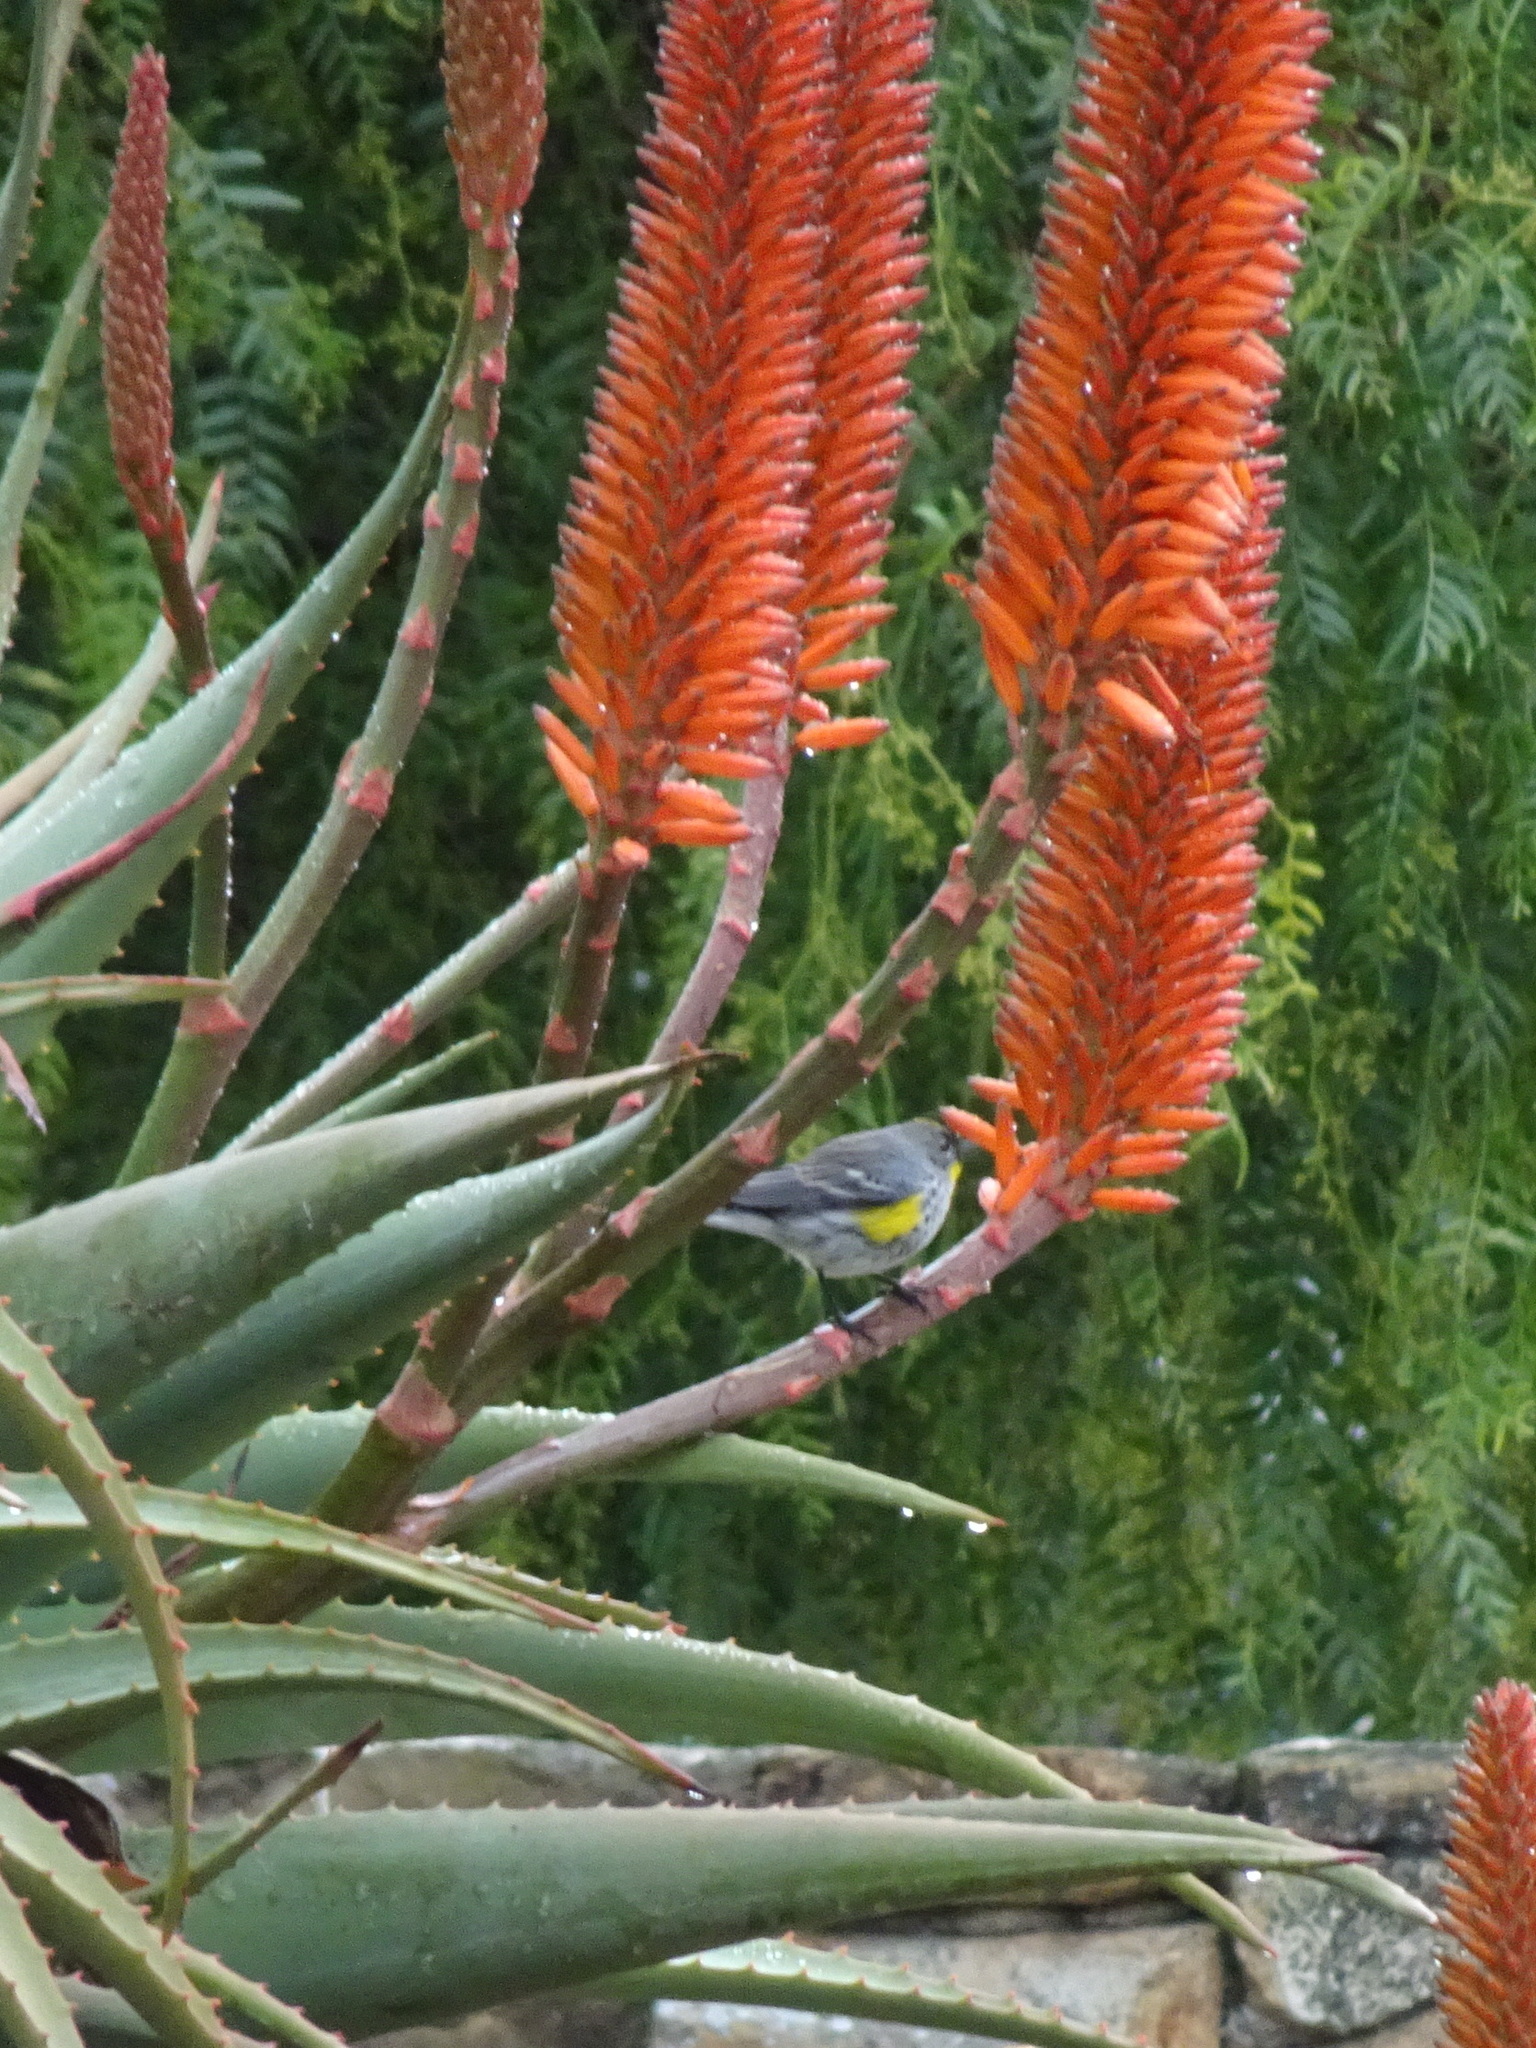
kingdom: Animalia
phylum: Chordata
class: Aves
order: Passeriformes
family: Parulidae
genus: Setophaga
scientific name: Setophaga auduboni
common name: Audubon's warbler
